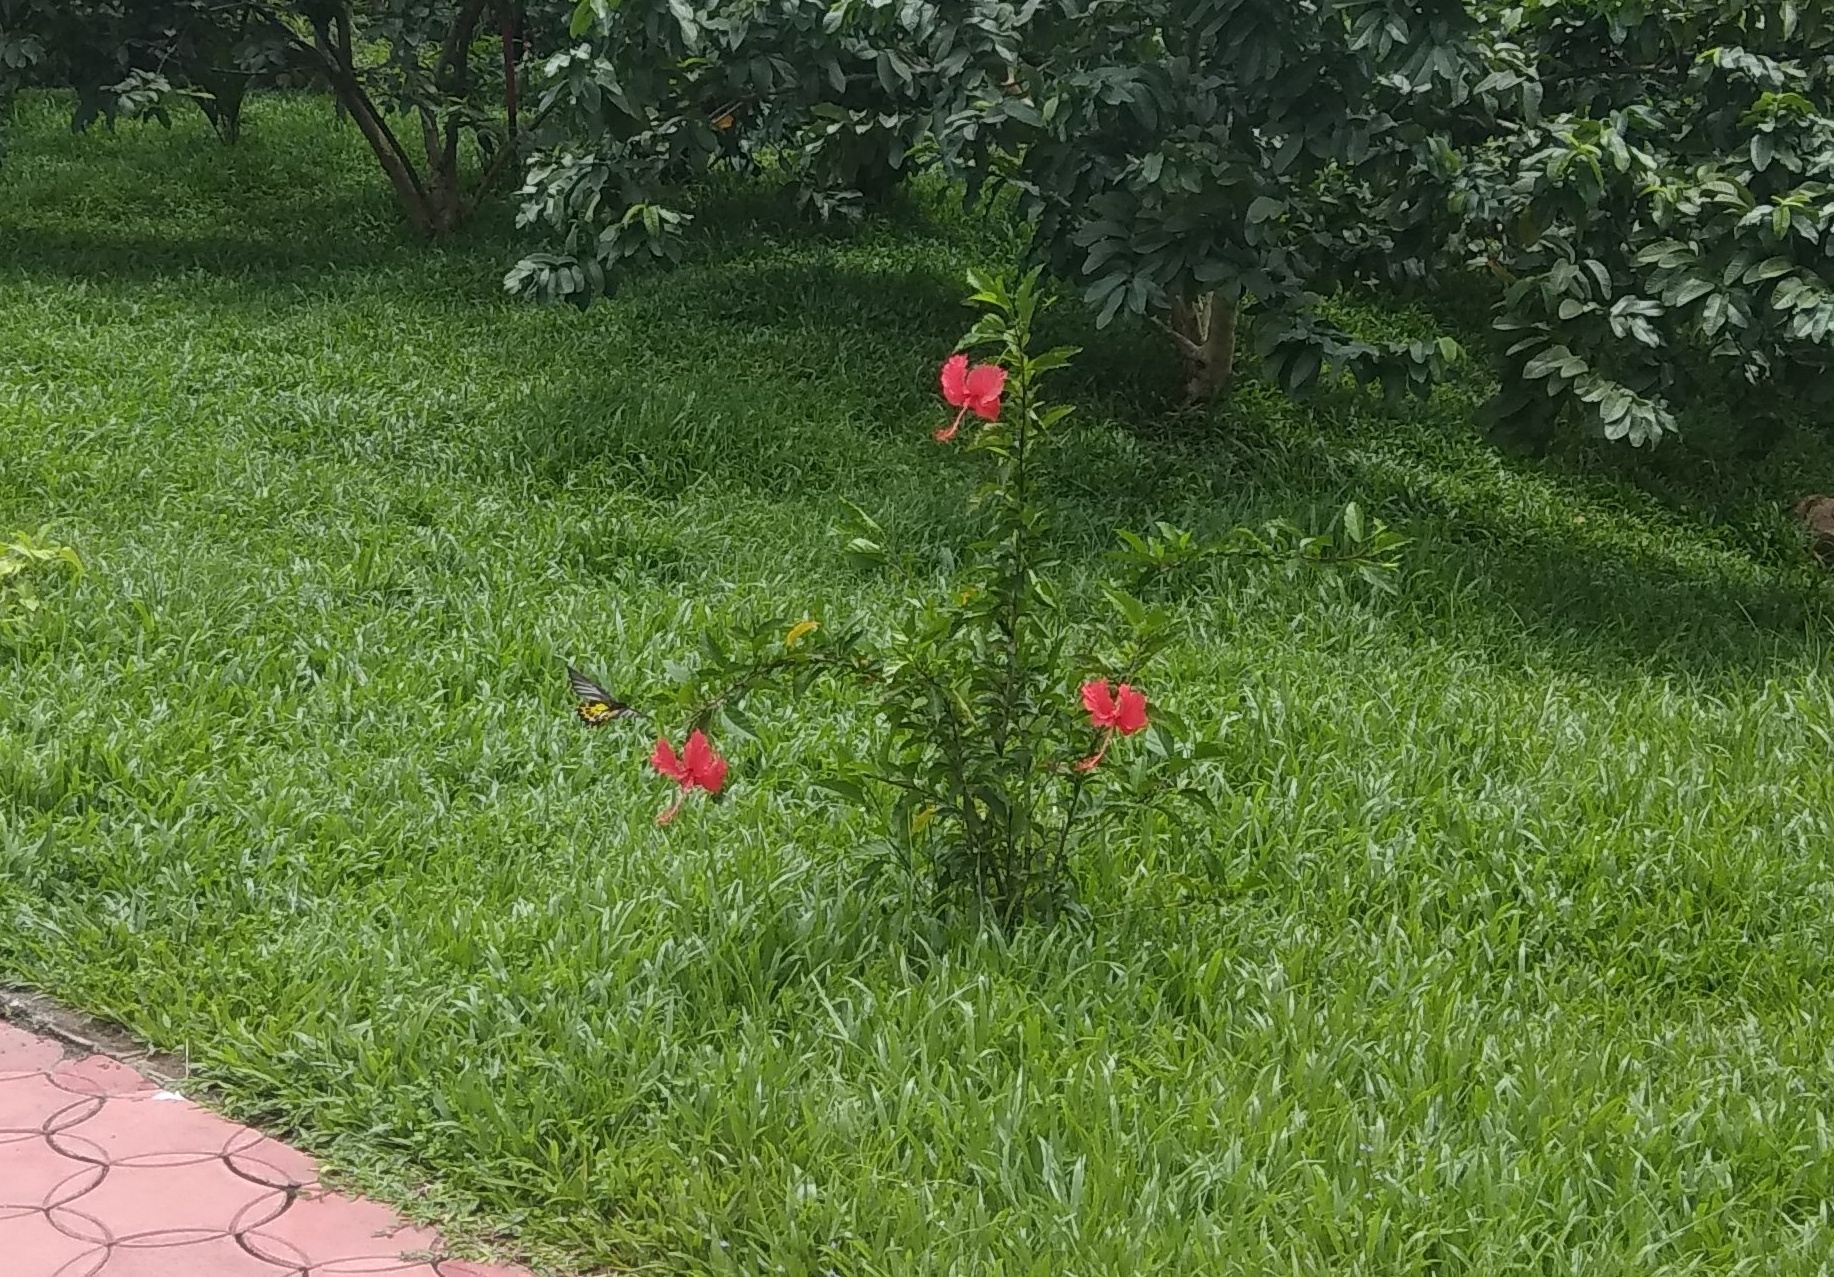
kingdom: Animalia
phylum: Arthropoda
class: Insecta
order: Lepidoptera
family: Papilionidae
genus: Troides
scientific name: Troides minos
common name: Malabar birdwing
